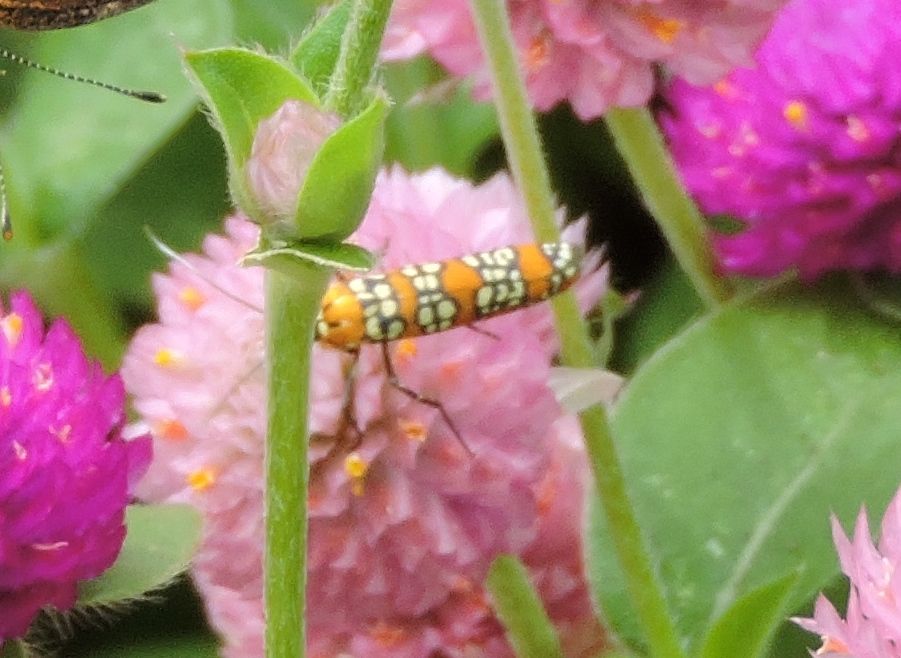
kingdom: Animalia
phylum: Arthropoda
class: Insecta
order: Lepidoptera
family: Attevidae
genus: Atteva
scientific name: Atteva punctella
